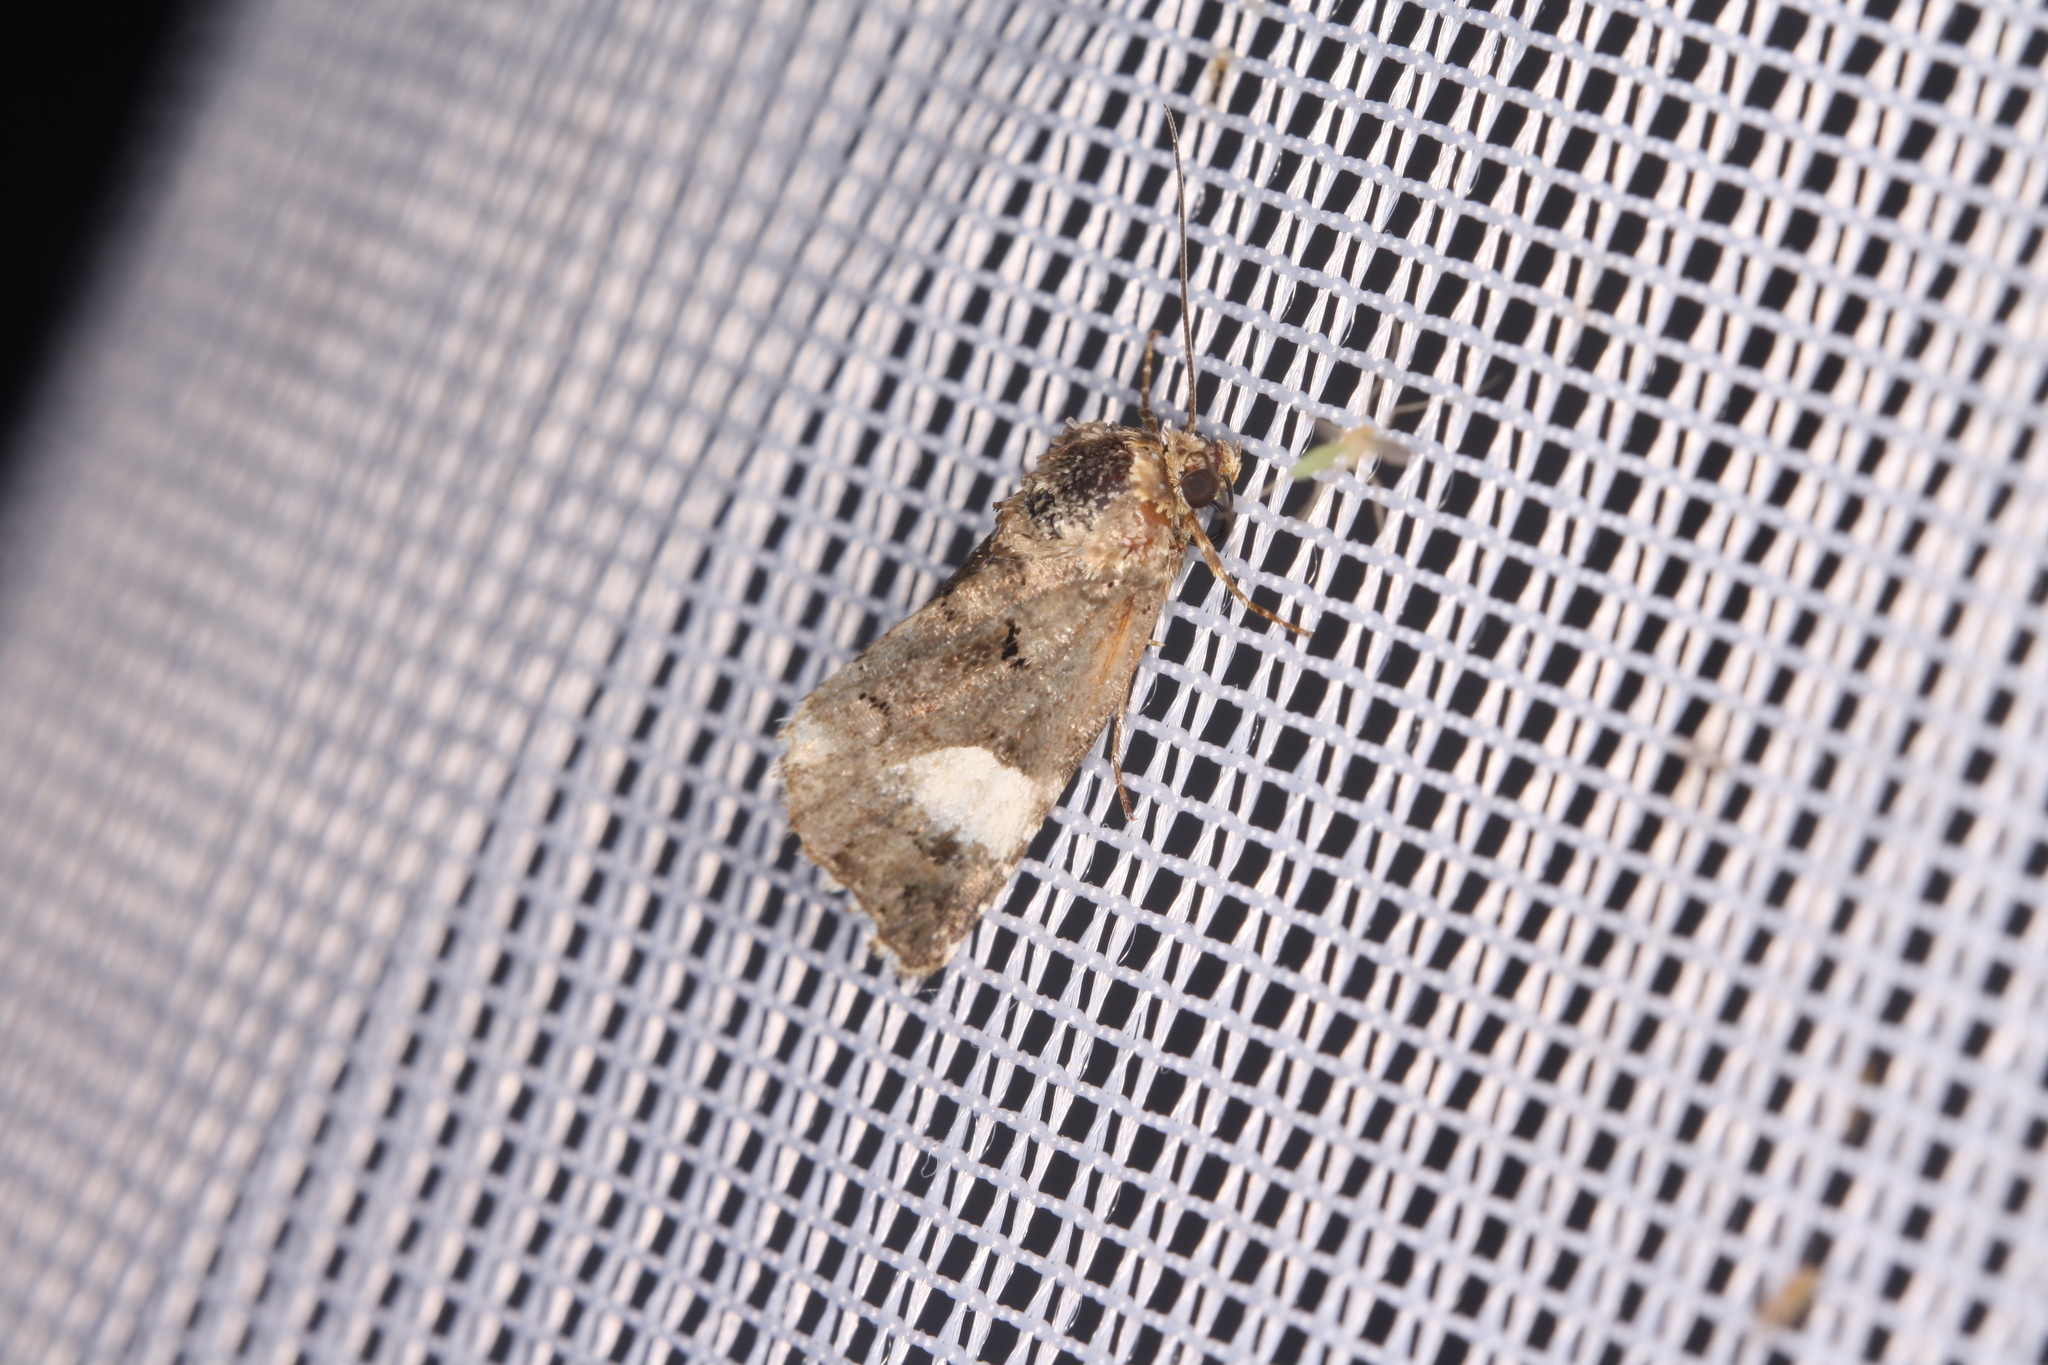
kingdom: Animalia
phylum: Arthropoda
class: Insecta
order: Lepidoptera
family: Erebidae
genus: Tyta
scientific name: Tyta luctuosa
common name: Four-spotted
